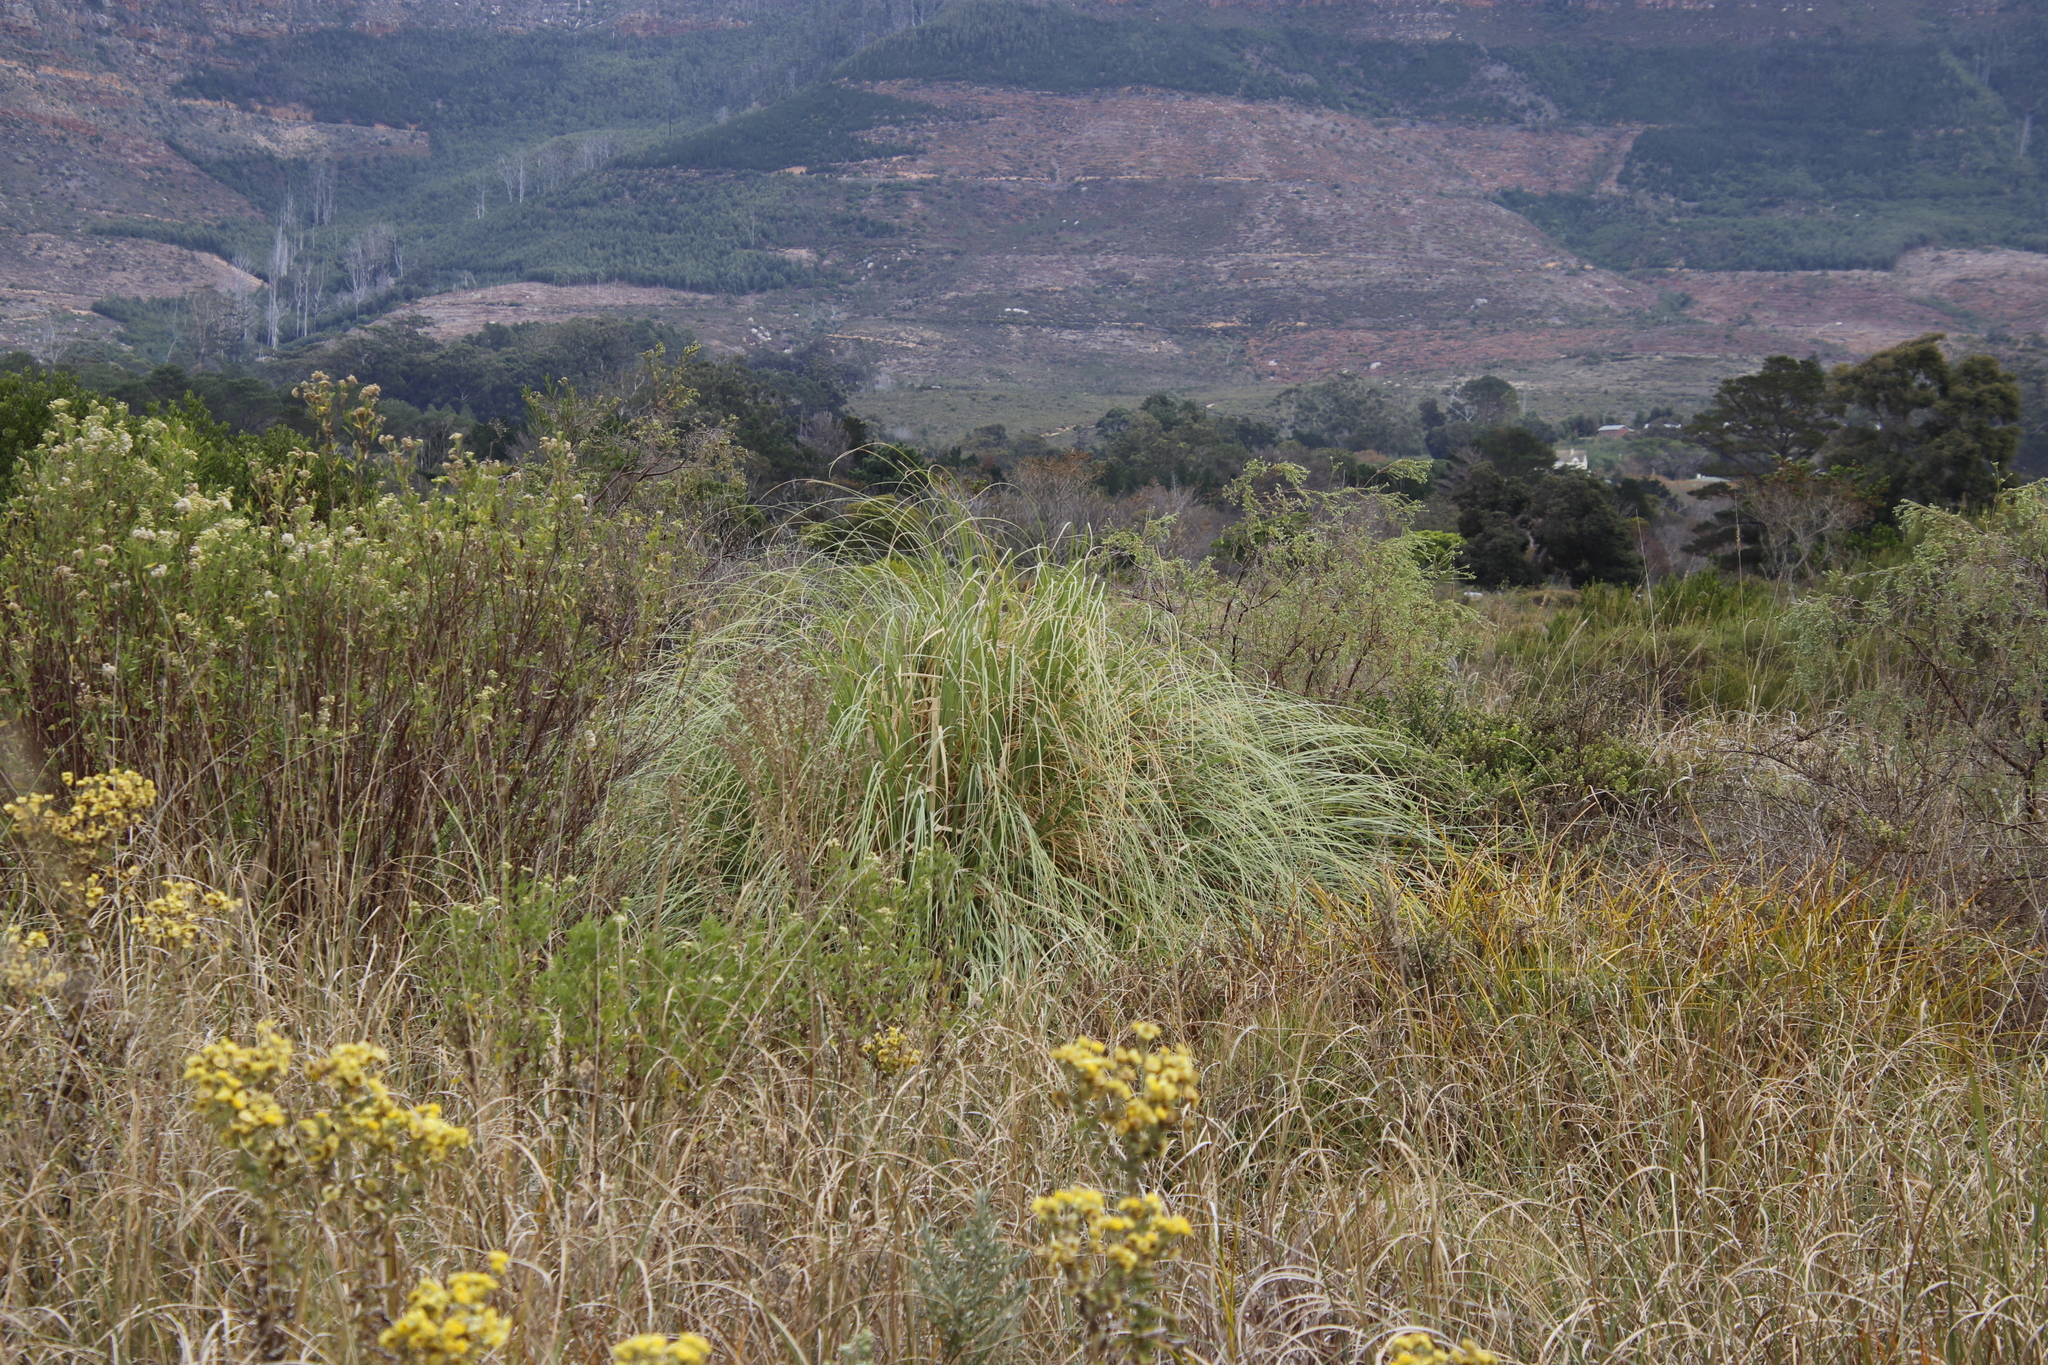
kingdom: Plantae
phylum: Tracheophyta
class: Liliopsida
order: Poales
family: Poaceae
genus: Cortaderia
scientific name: Cortaderia selloana
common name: Uruguayan pampas grass
